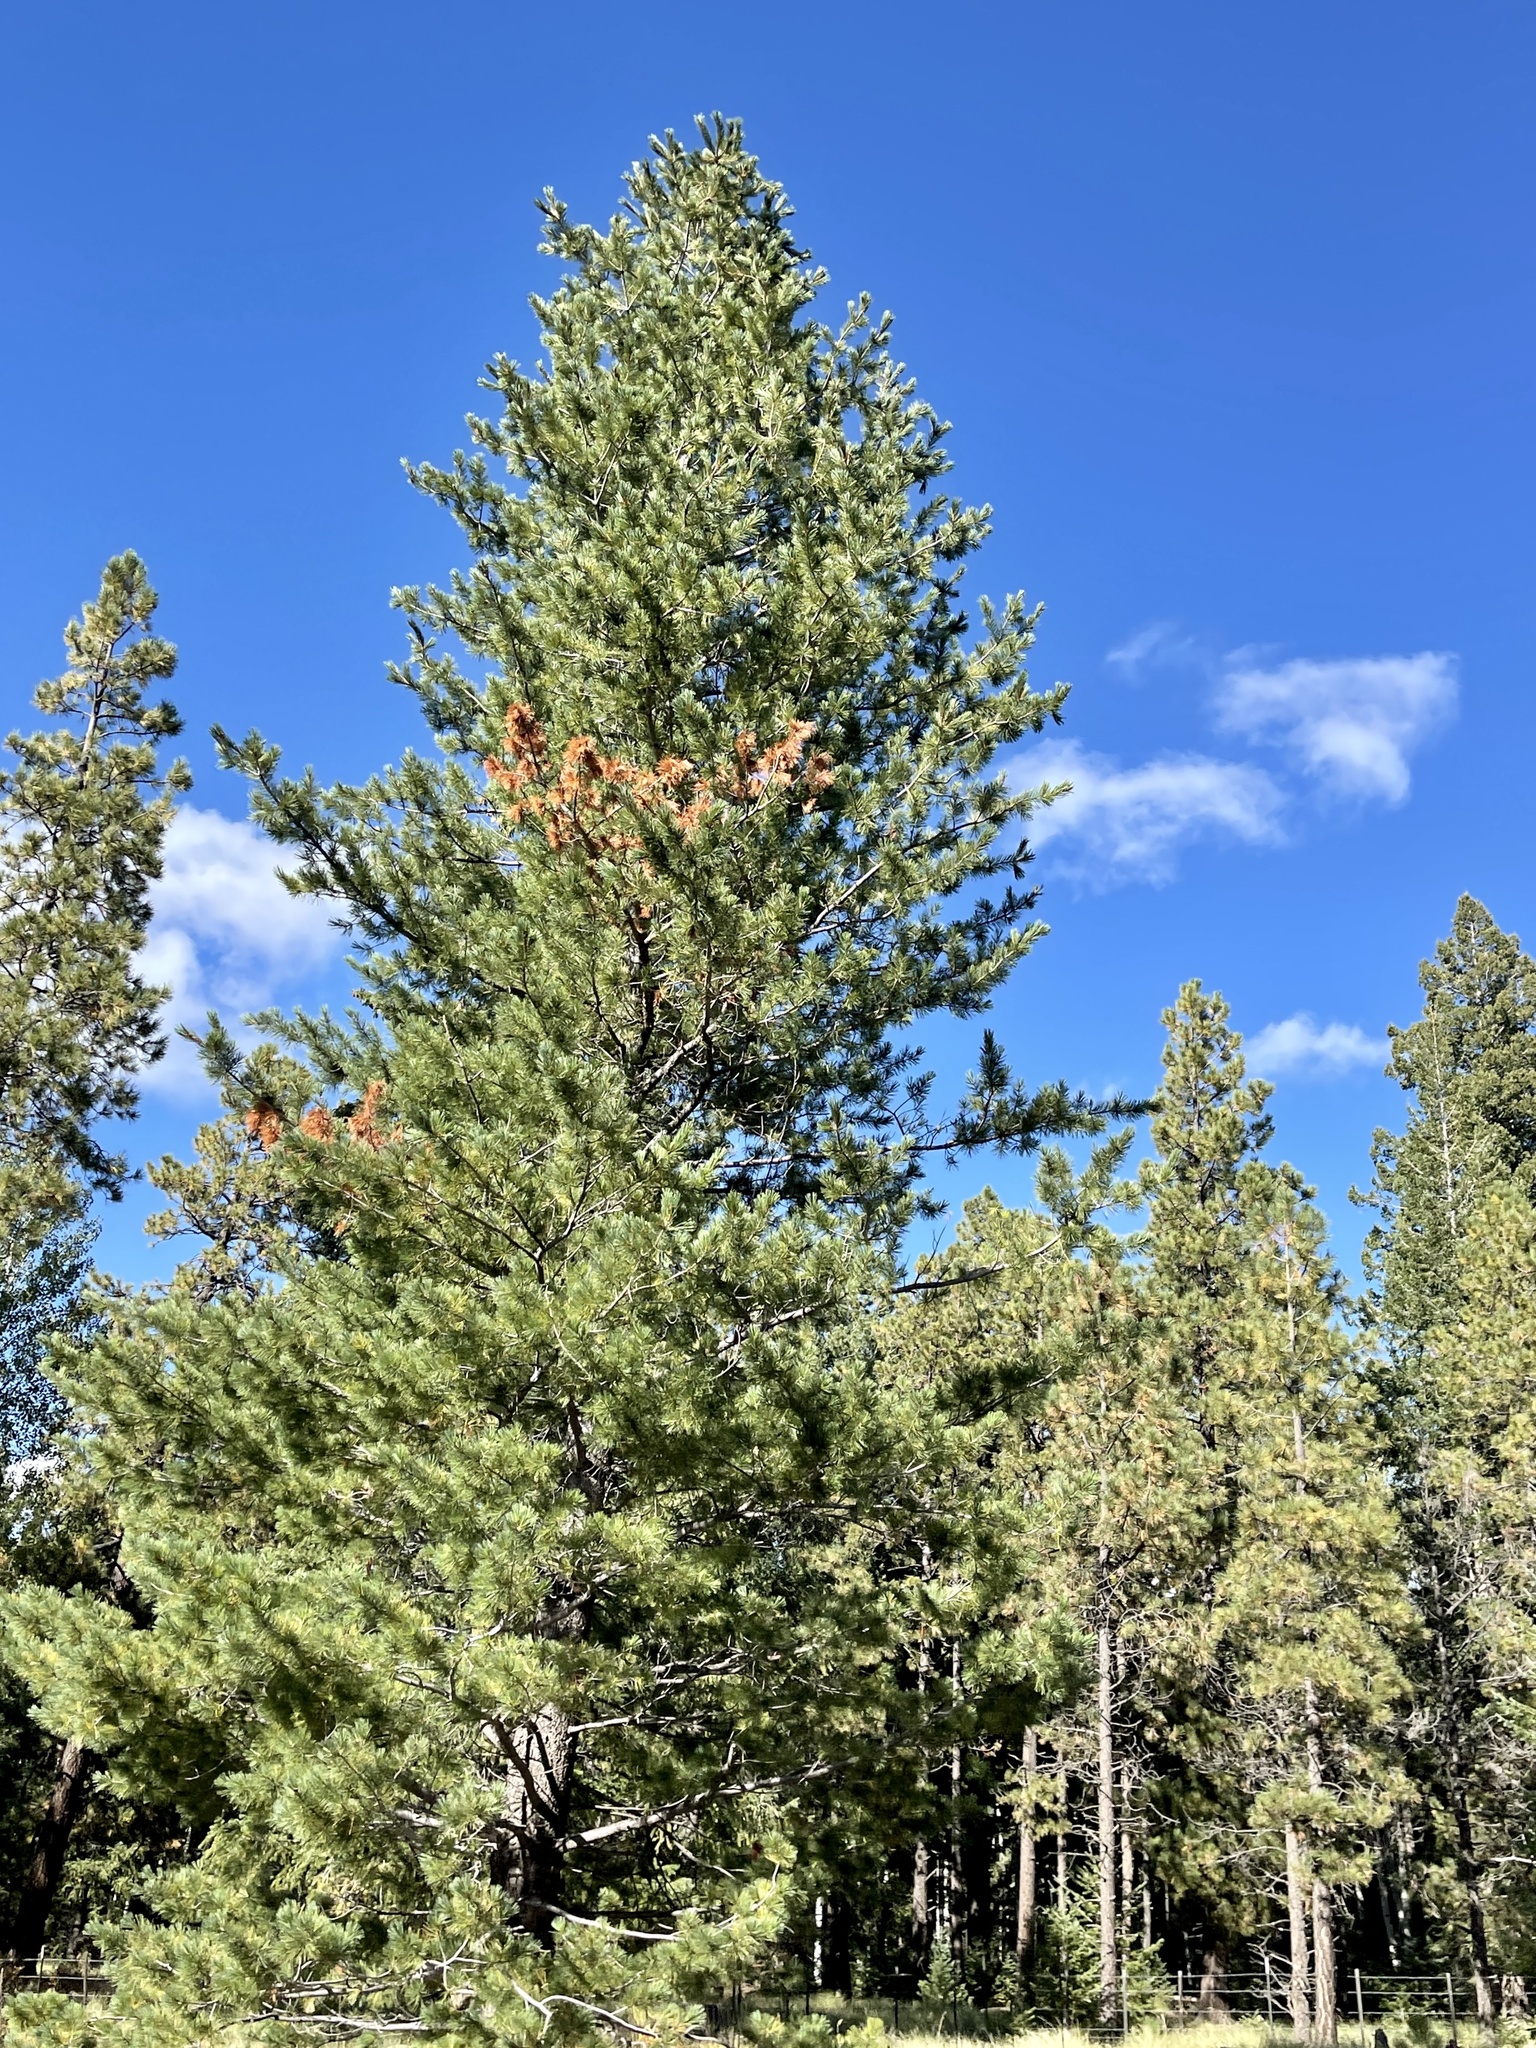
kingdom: Plantae
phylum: Tracheophyta
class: Pinopsida
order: Pinales
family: Pinaceae
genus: Pinus
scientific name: Pinus strobiformis
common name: Southwestern white pine
